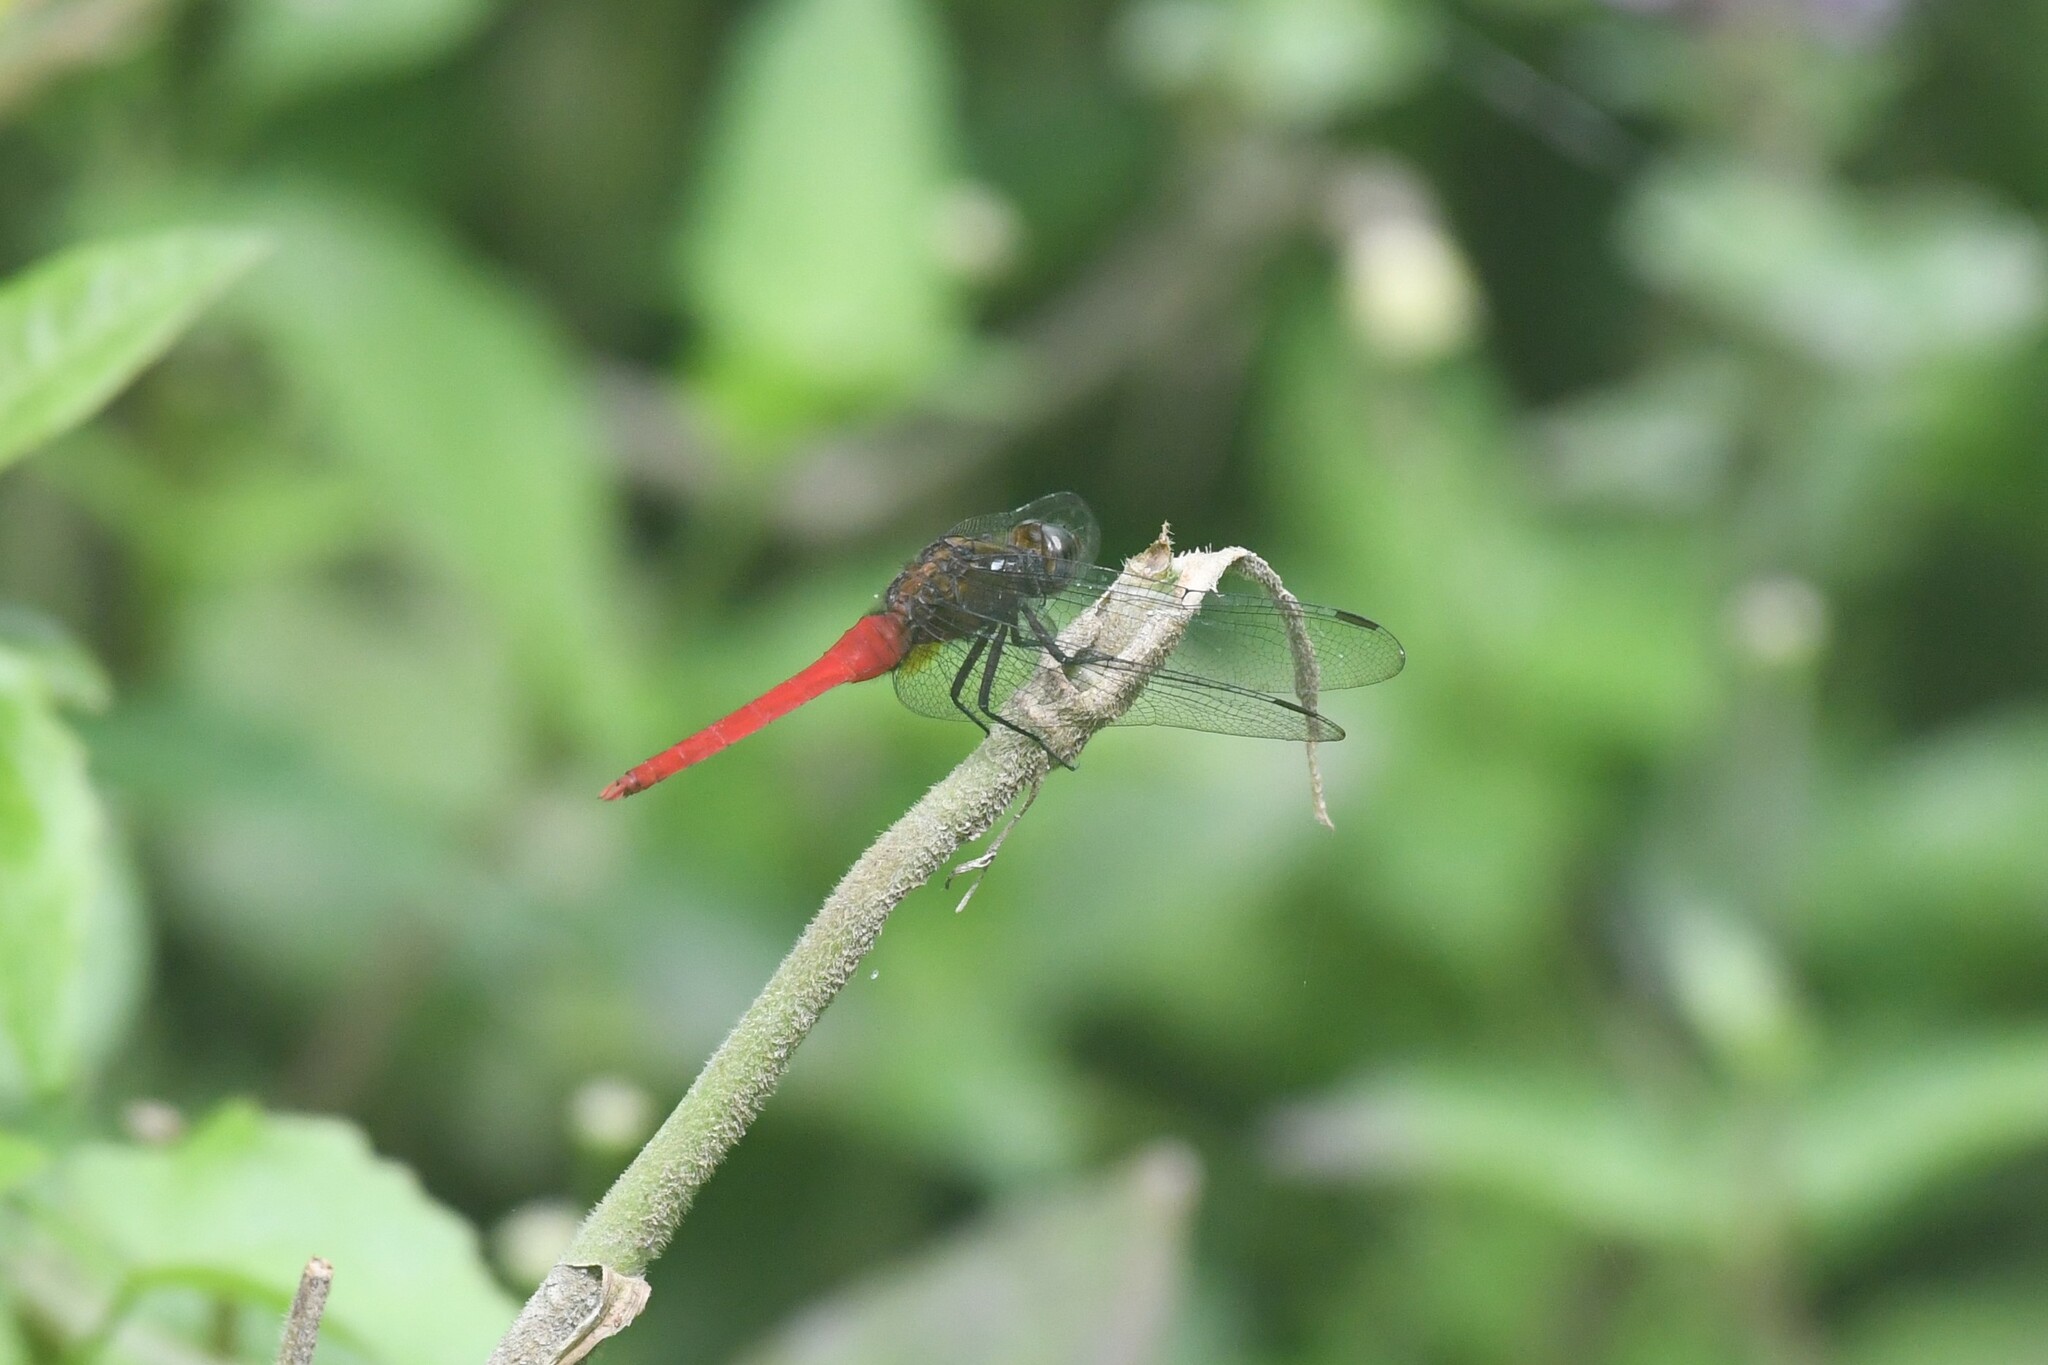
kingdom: Animalia
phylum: Arthropoda
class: Insecta
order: Odonata
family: Libellulidae
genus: Orthetrum
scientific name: Orthetrum chrysis
